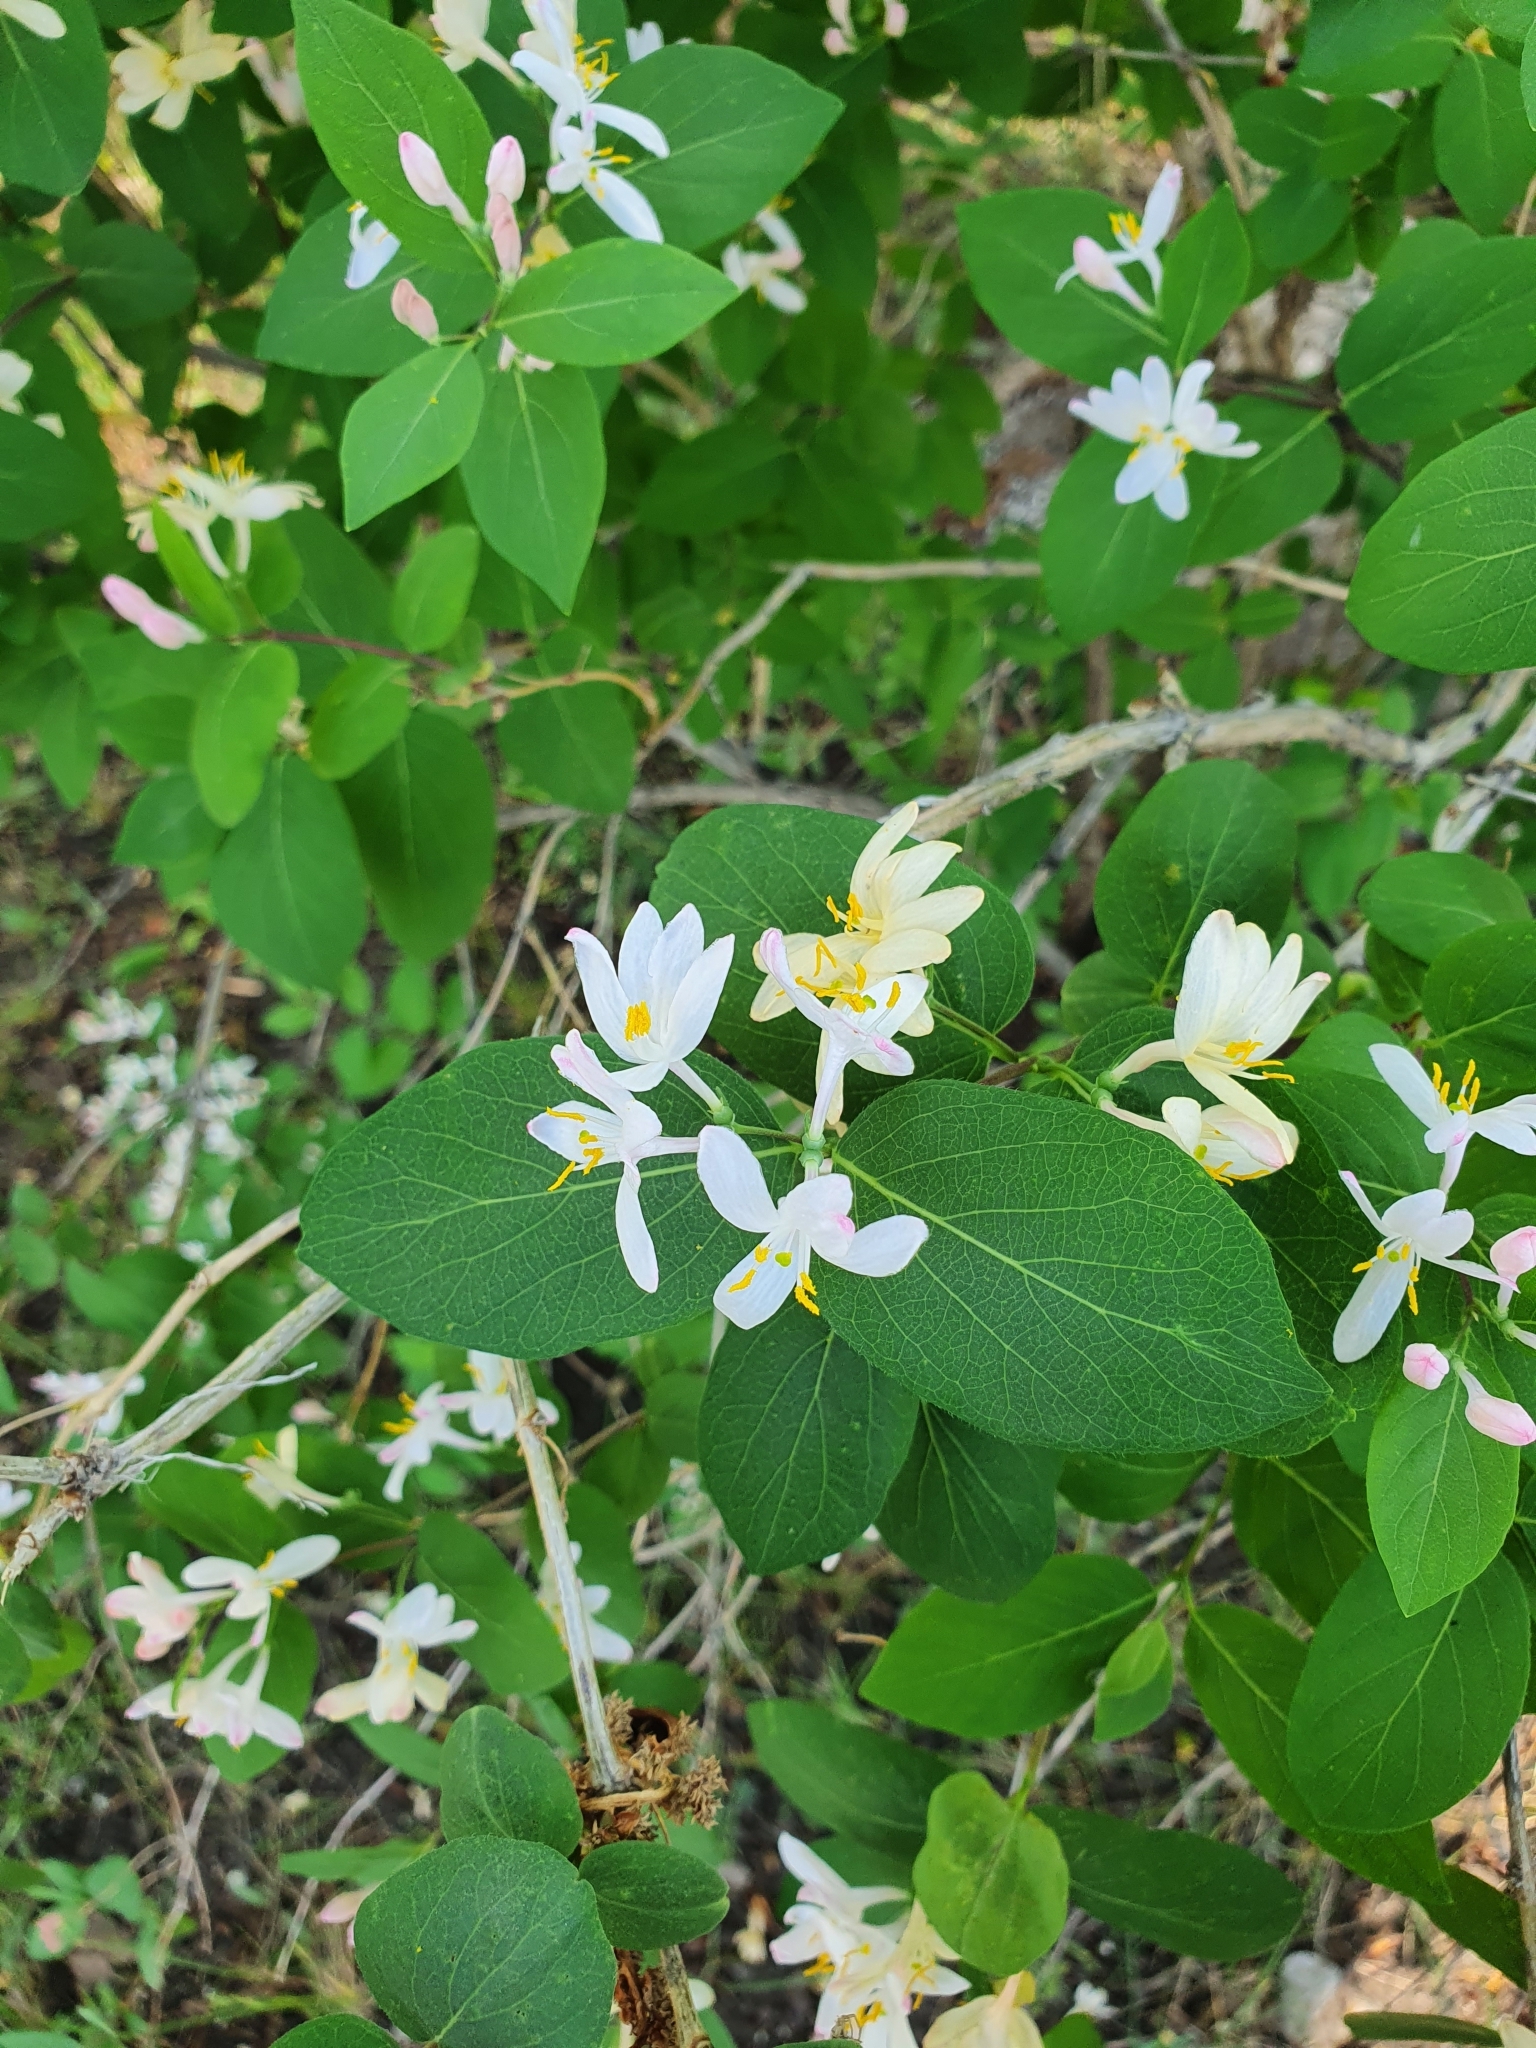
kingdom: Plantae
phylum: Tracheophyta
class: Magnoliopsida
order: Dipsacales
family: Caprifoliaceae
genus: Lonicera
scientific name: Lonicera tatarica
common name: Tatarian honeysuckle
